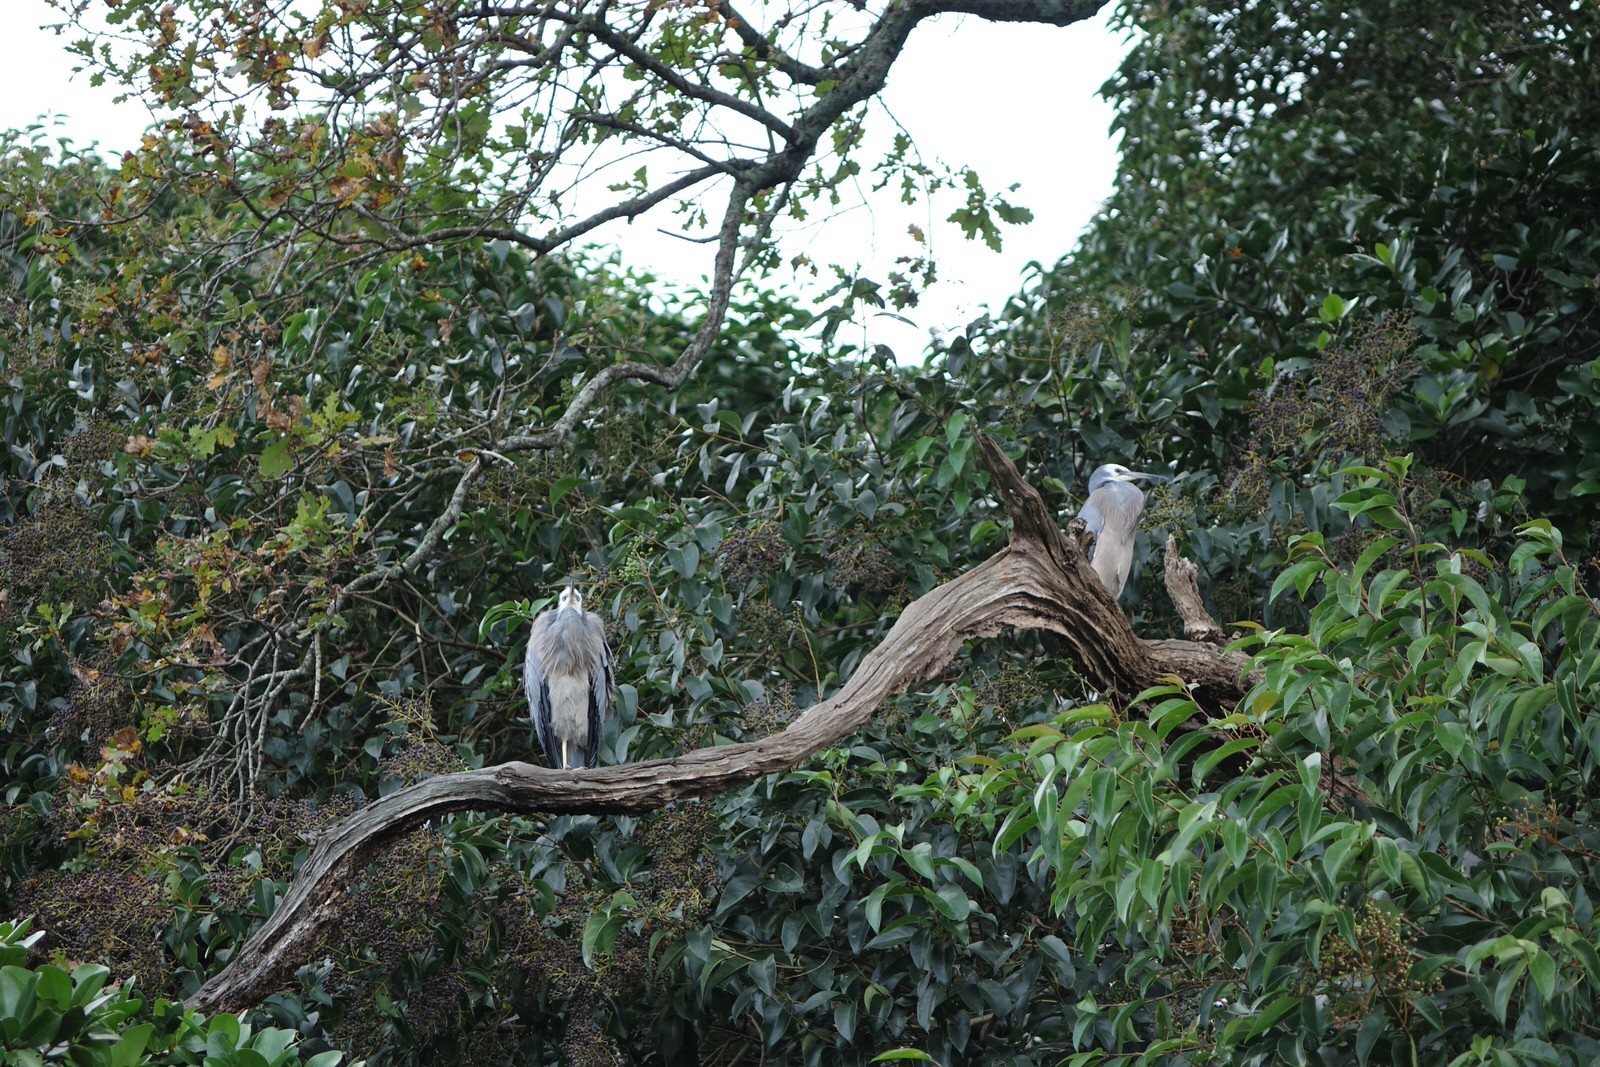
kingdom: Animalia
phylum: Chordata
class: Aves
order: Pelecaniformes
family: Ardeidae
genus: Egretta
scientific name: Egretta novaehollandiae
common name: White-faced heron
